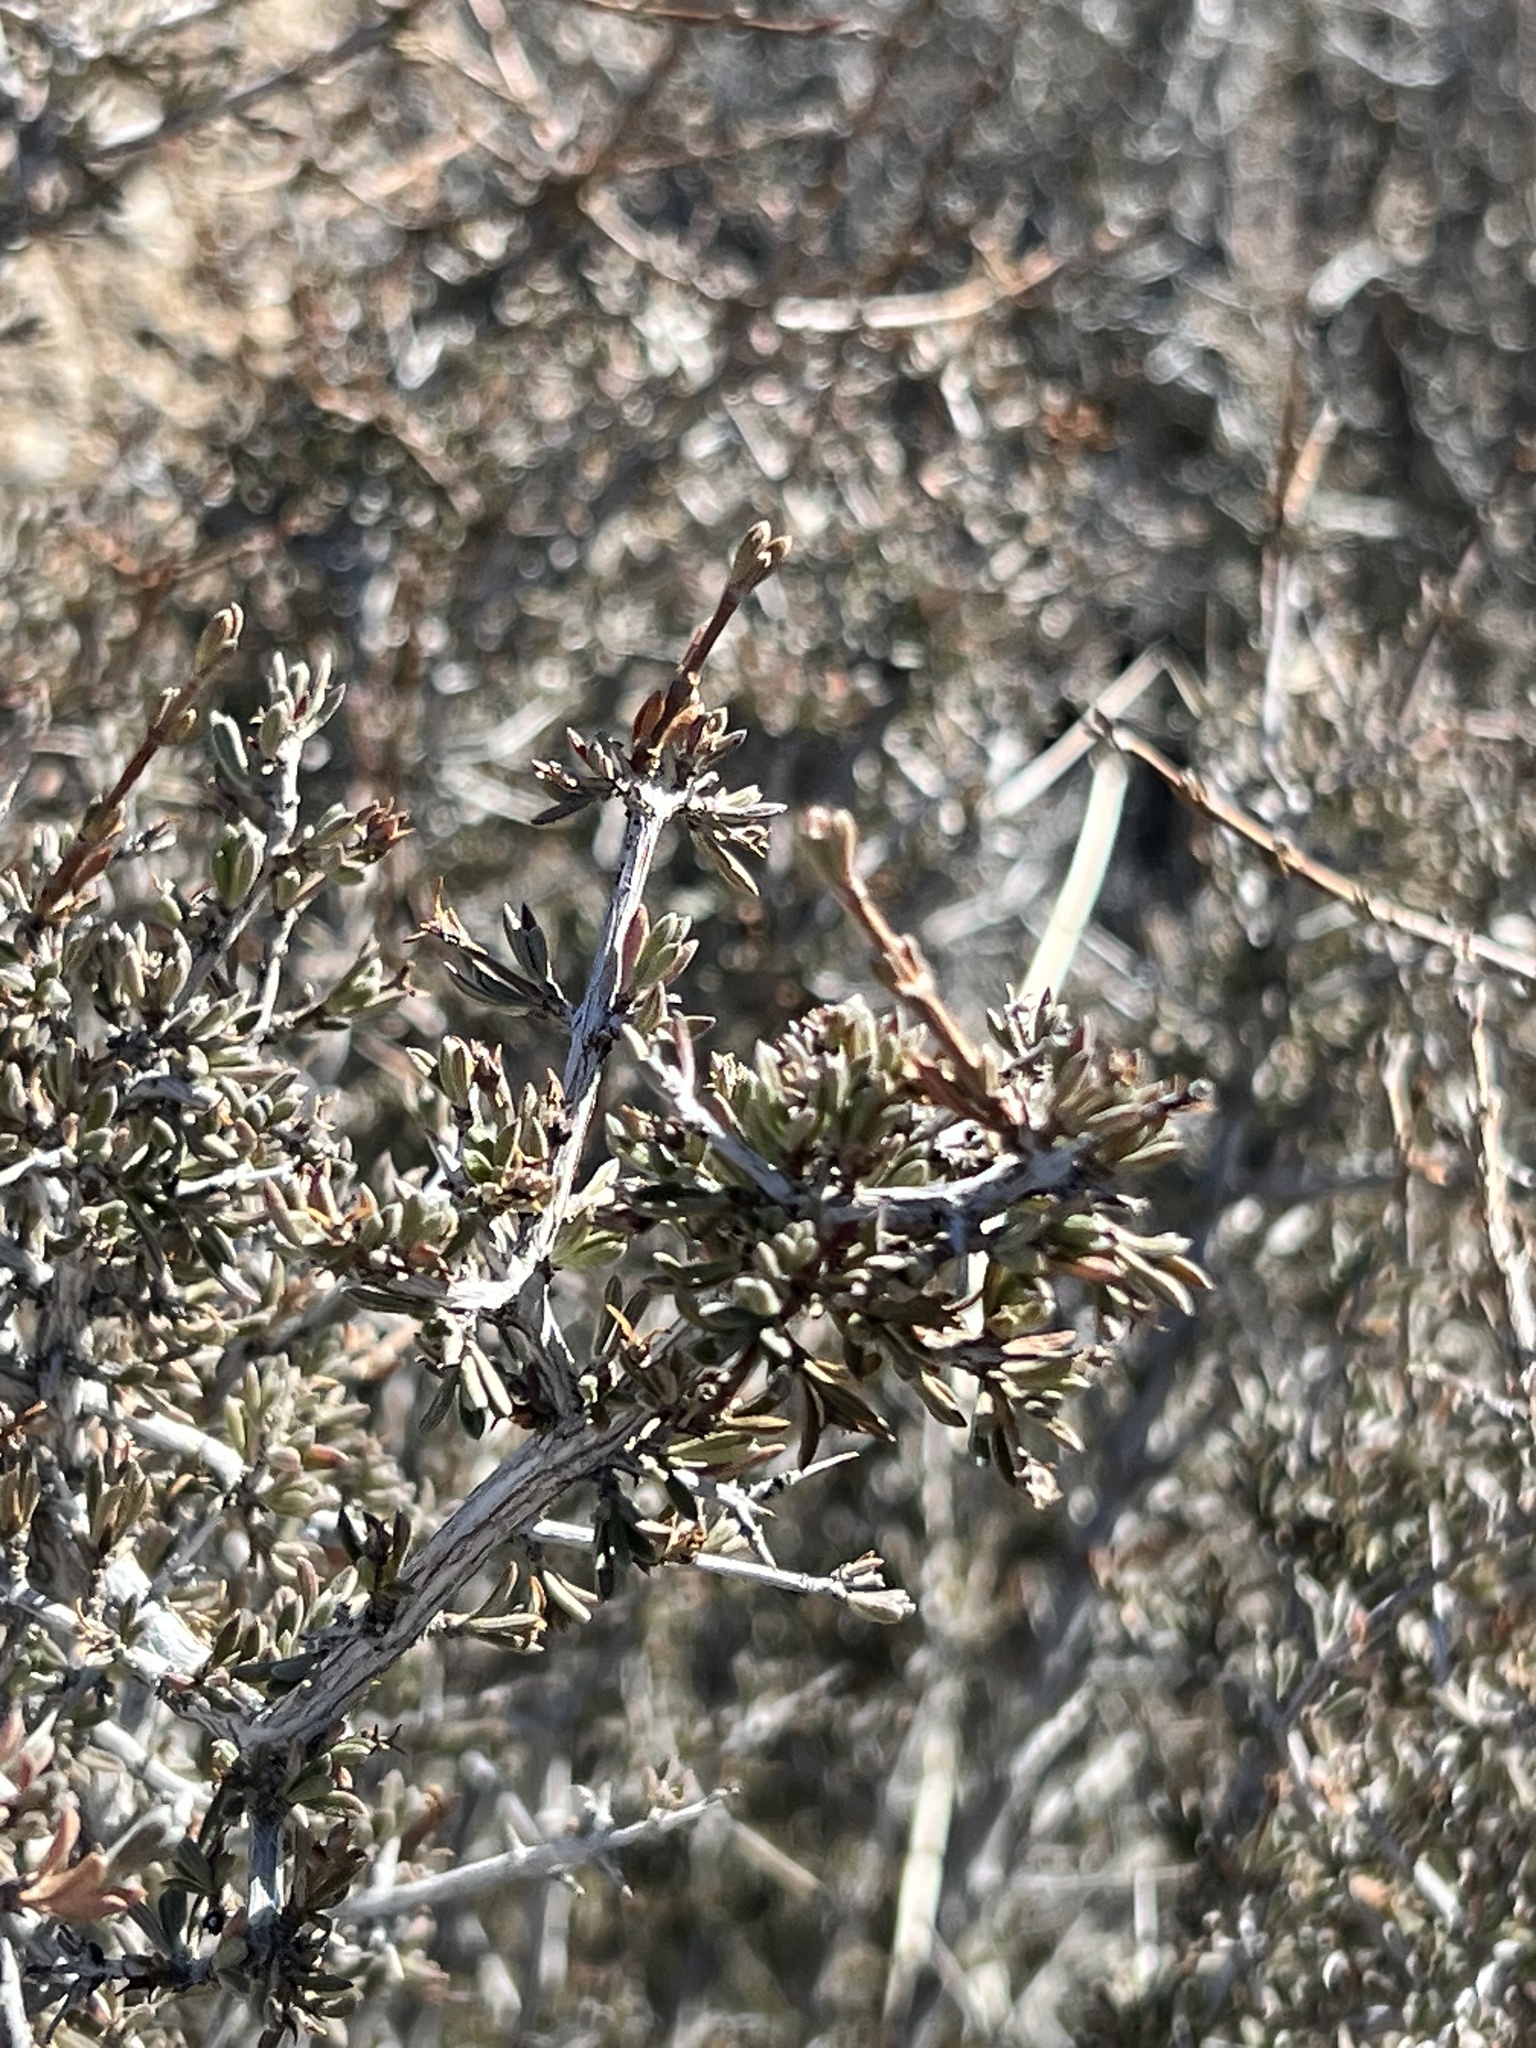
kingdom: Plantae
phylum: Tracheophyta
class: Magnoliopsida
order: Rosales
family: Rosaceae
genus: Coleogyne
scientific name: Coleogyne ramosissima
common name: Blackbrush
